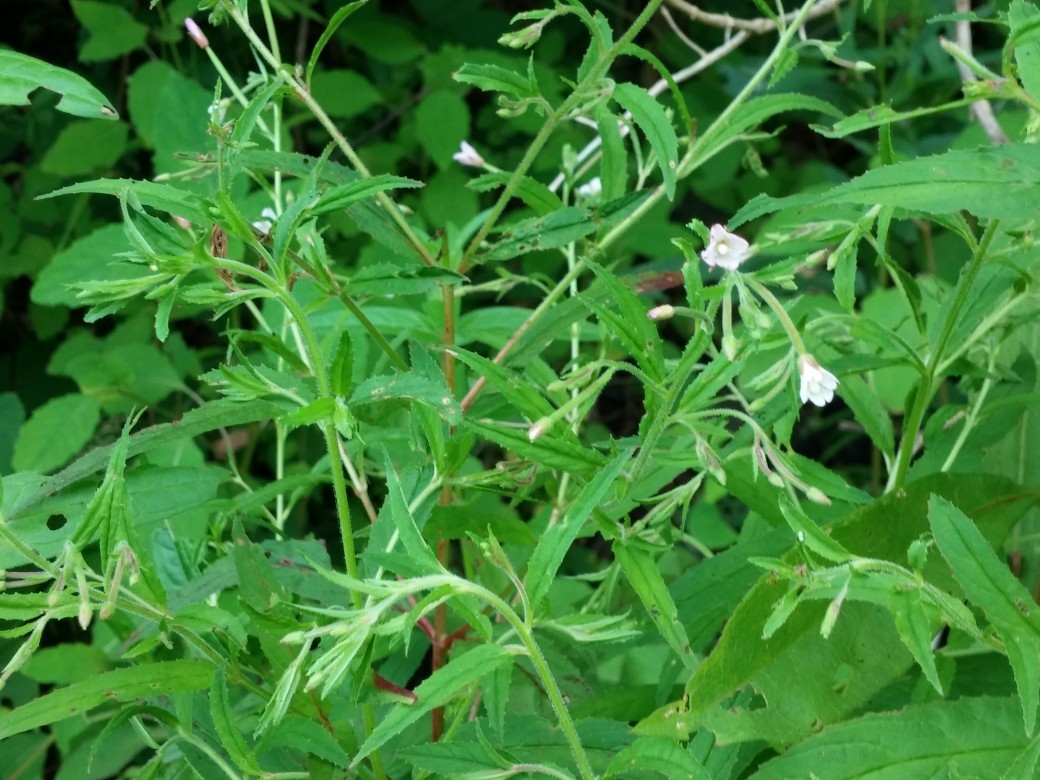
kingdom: Plantae
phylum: Tracheophyta
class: Magnoliopsida
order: Myrtales
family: Onagraceae
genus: Epilobium
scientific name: Epilobium coloratum
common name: Bronze willowherb
